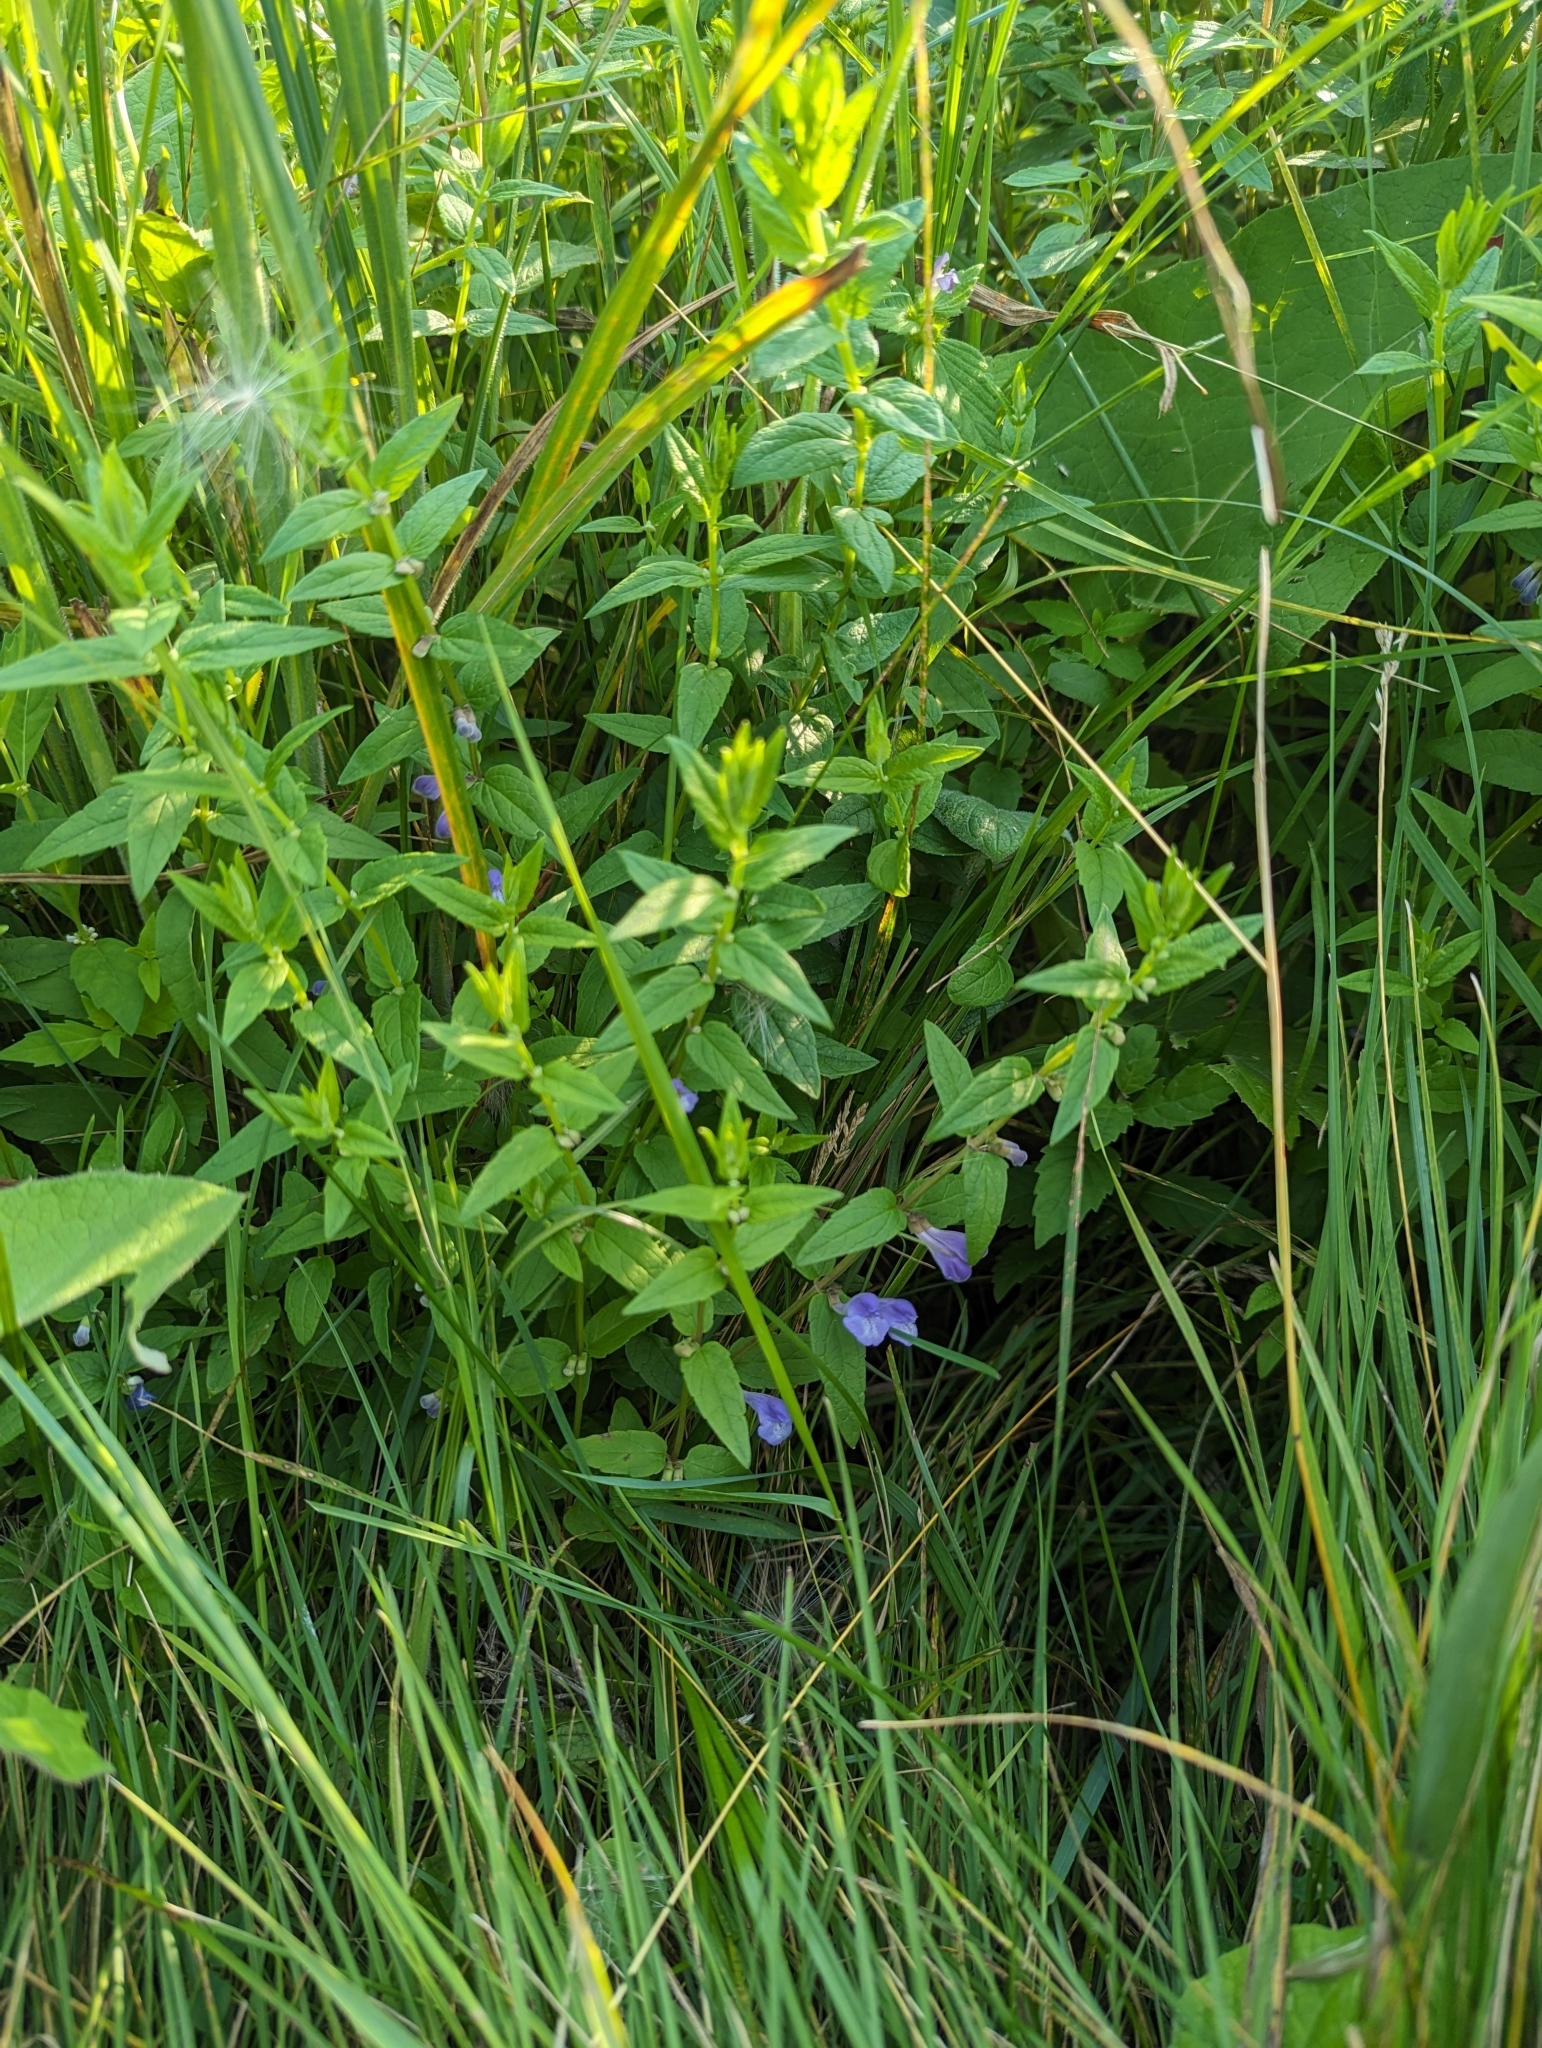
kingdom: Plantae
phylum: Tracheophyta
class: Magnoliopsida
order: Lamiales
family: Lamiaceae
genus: Scutellaria
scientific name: Scutellaria galericulata
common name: Skullcap
